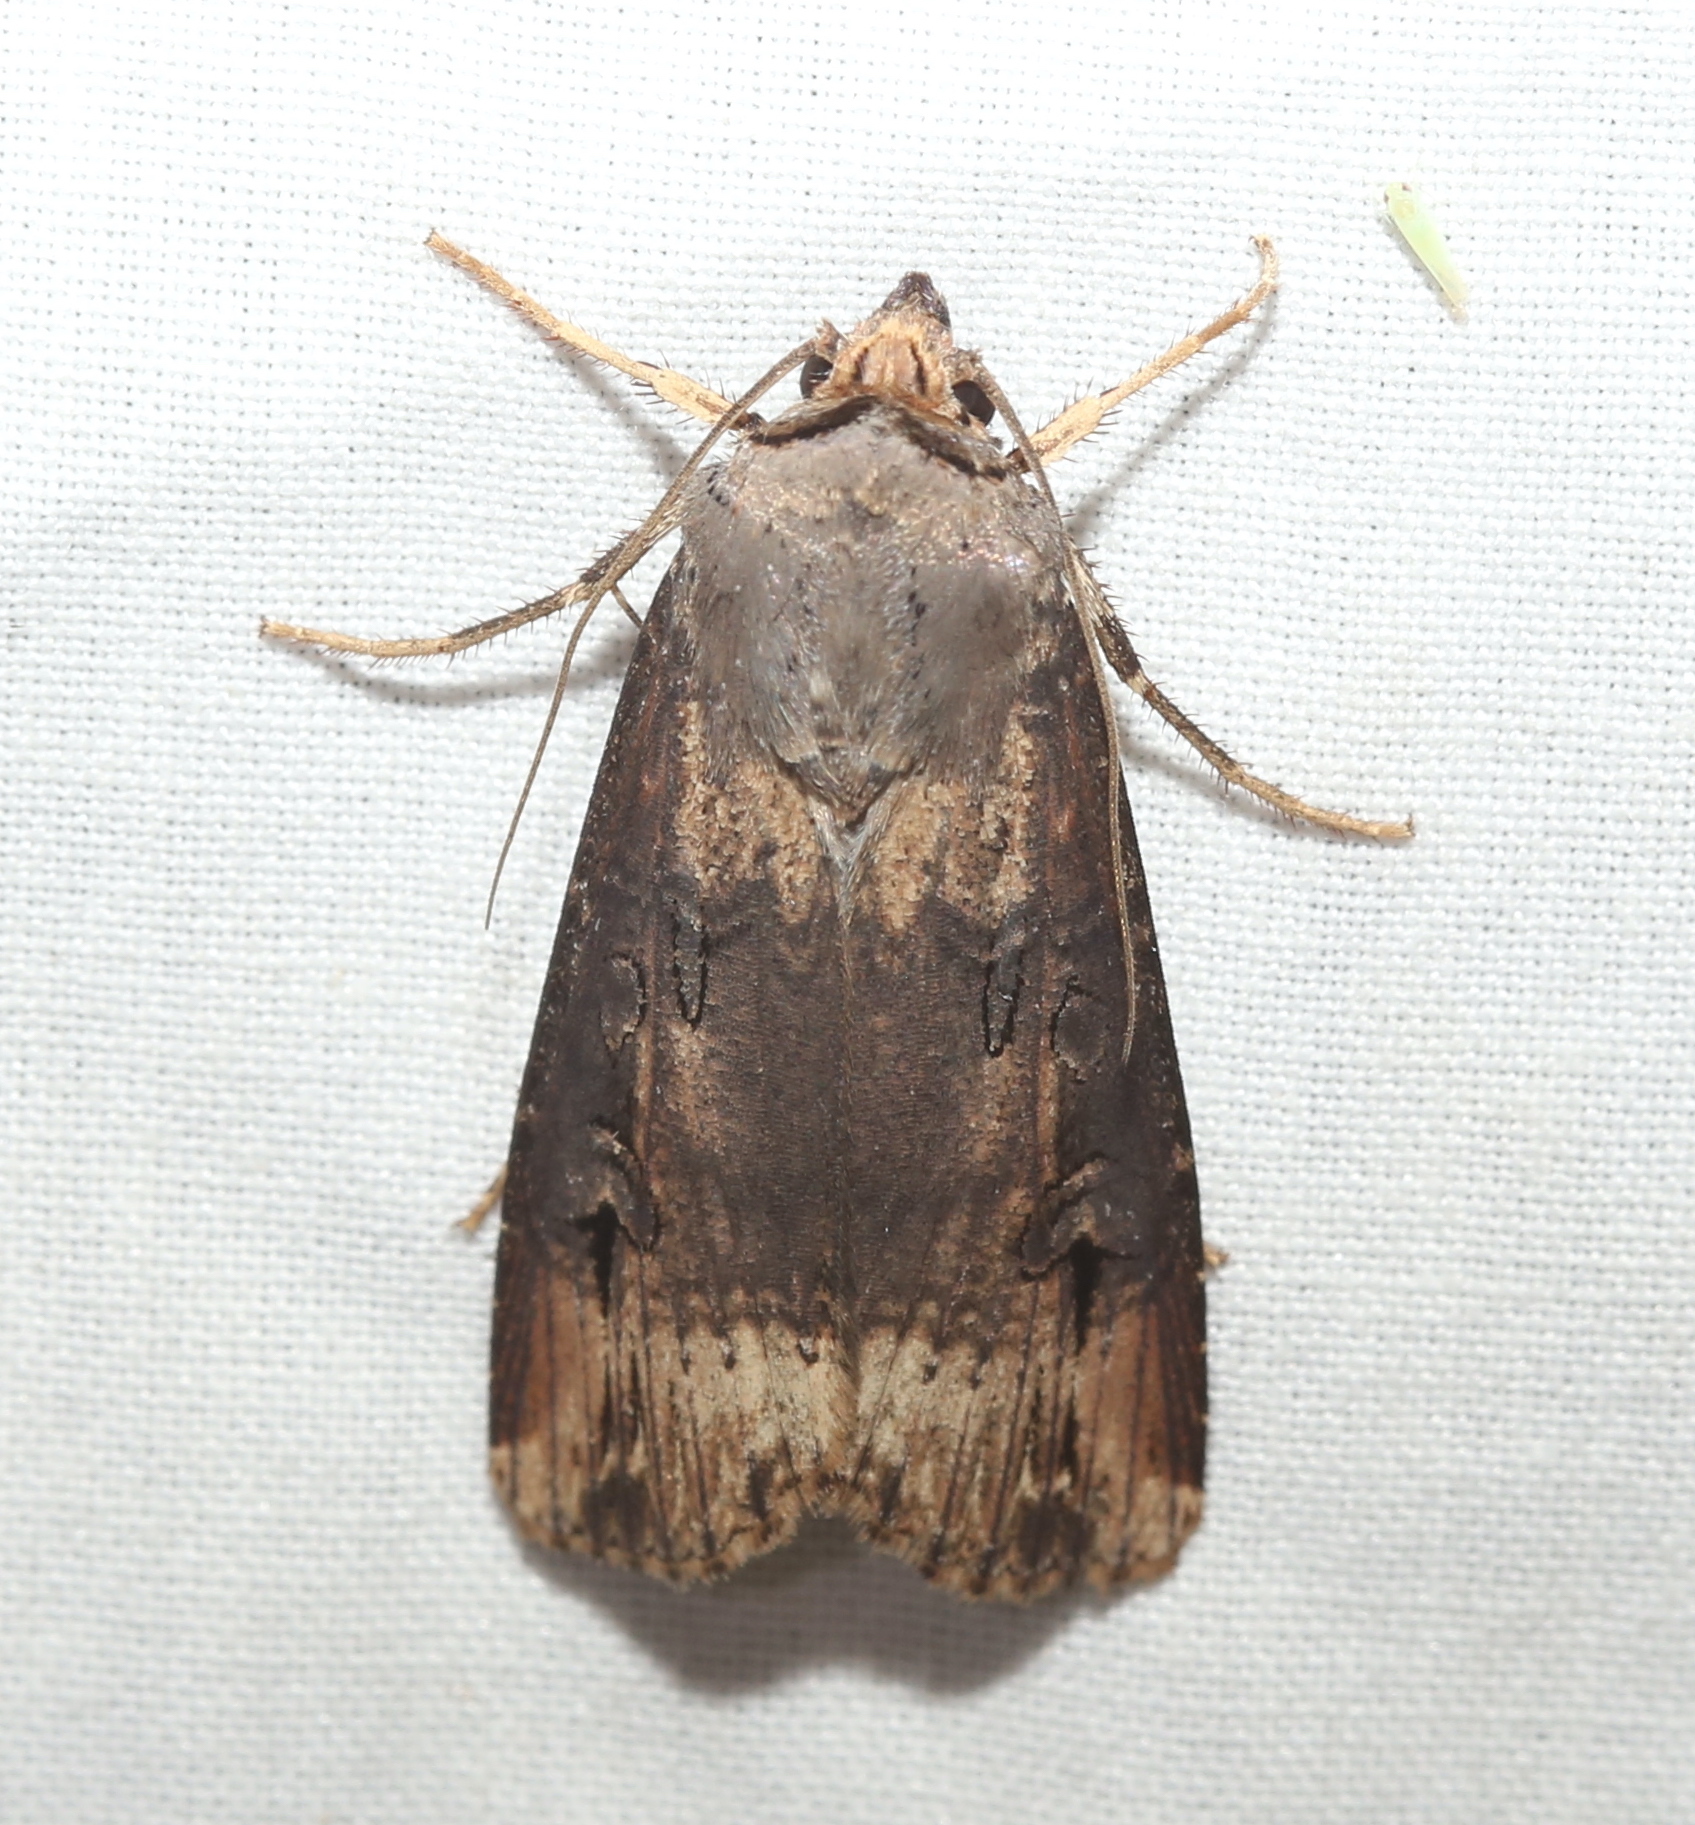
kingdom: Animalia
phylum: Arthropoda
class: Insecta
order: Lepidoptera
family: Noctuidae
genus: Agrotis
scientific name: Agrotis ipsilon
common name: Dark sword-grass
